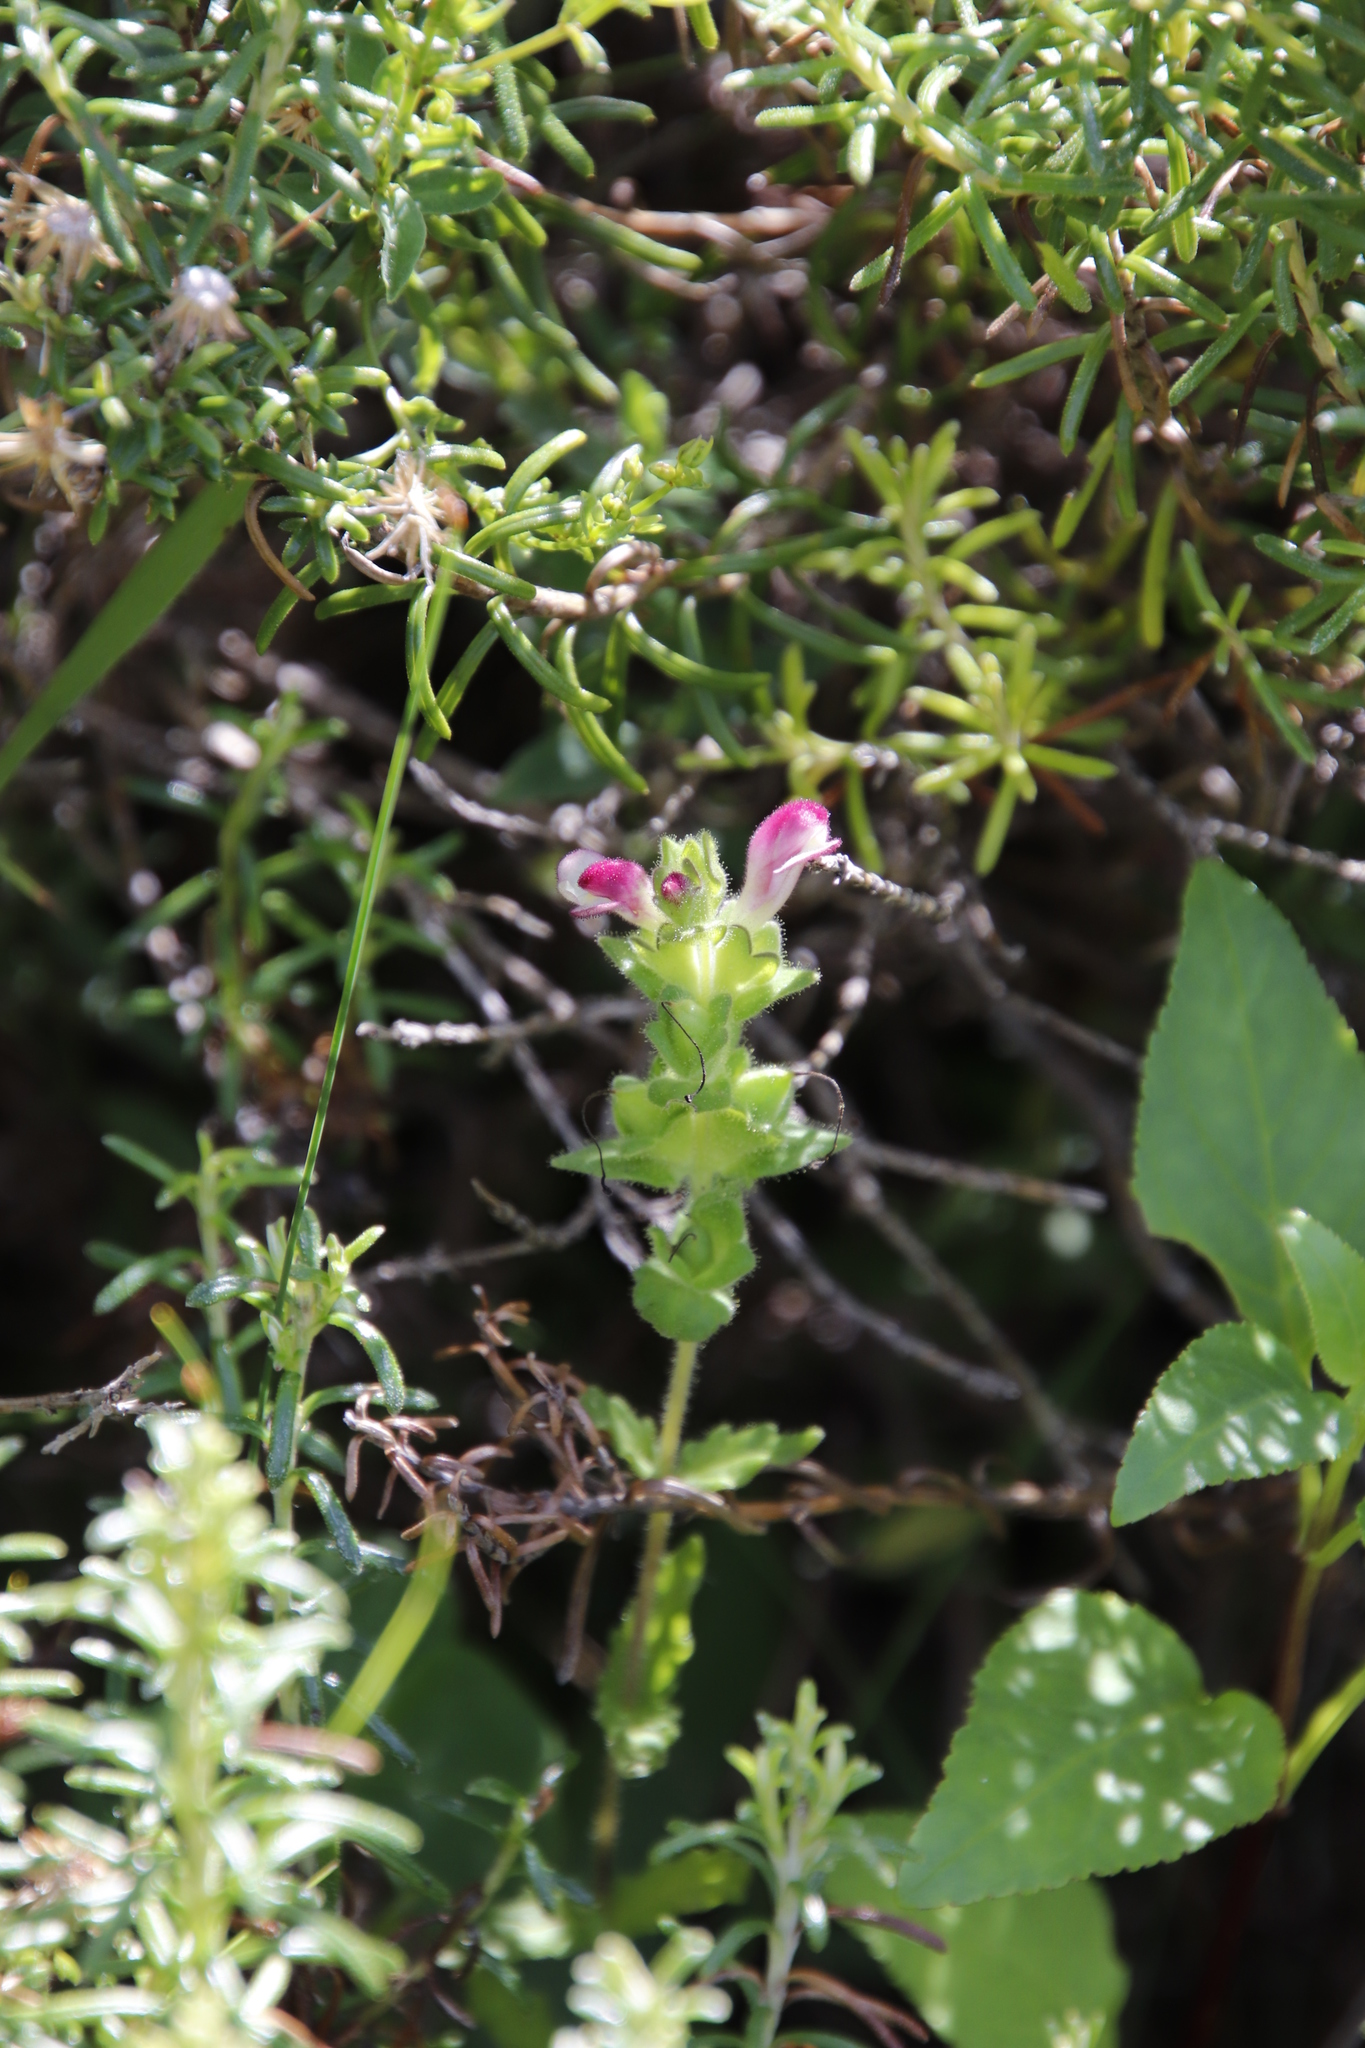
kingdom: Plantae
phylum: Tracheophyta
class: Magnoliopsida
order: Lamiales
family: Orobanchaceae
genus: Bellardia
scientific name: Bellardia trixago
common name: Mediterranean lineseed
